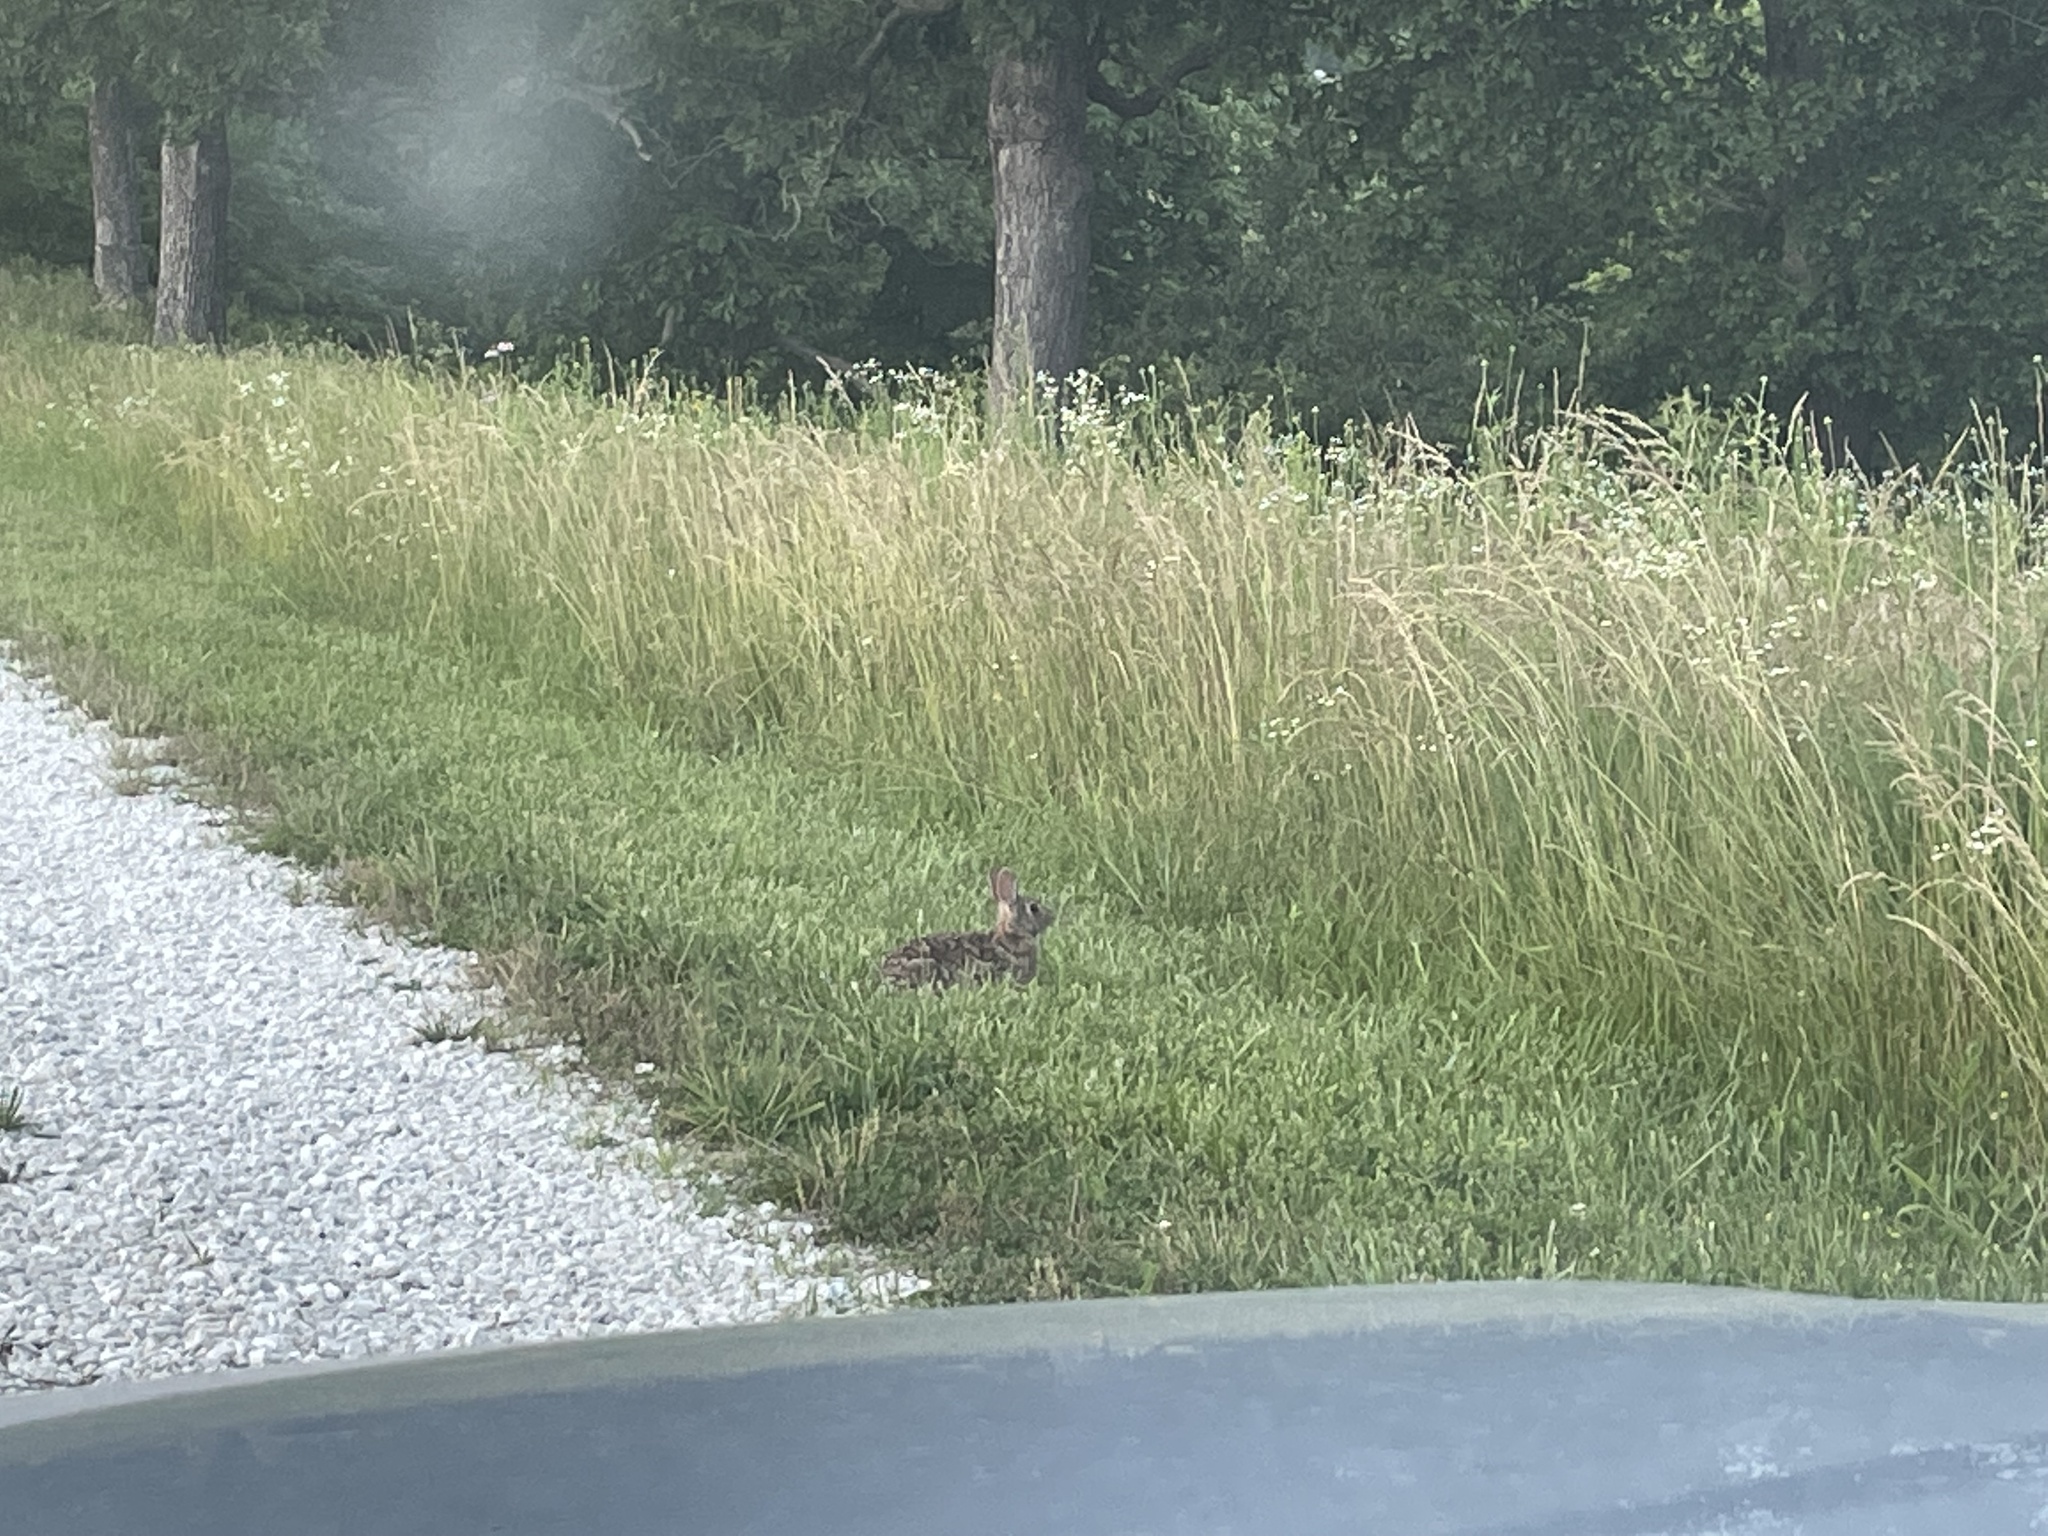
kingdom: Animalia
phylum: Chordata
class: Mammalia
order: Lagomorpha
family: Leporidae
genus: Sylvilagus
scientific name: Sylvilagus floridanus
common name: Eastern cottontail
